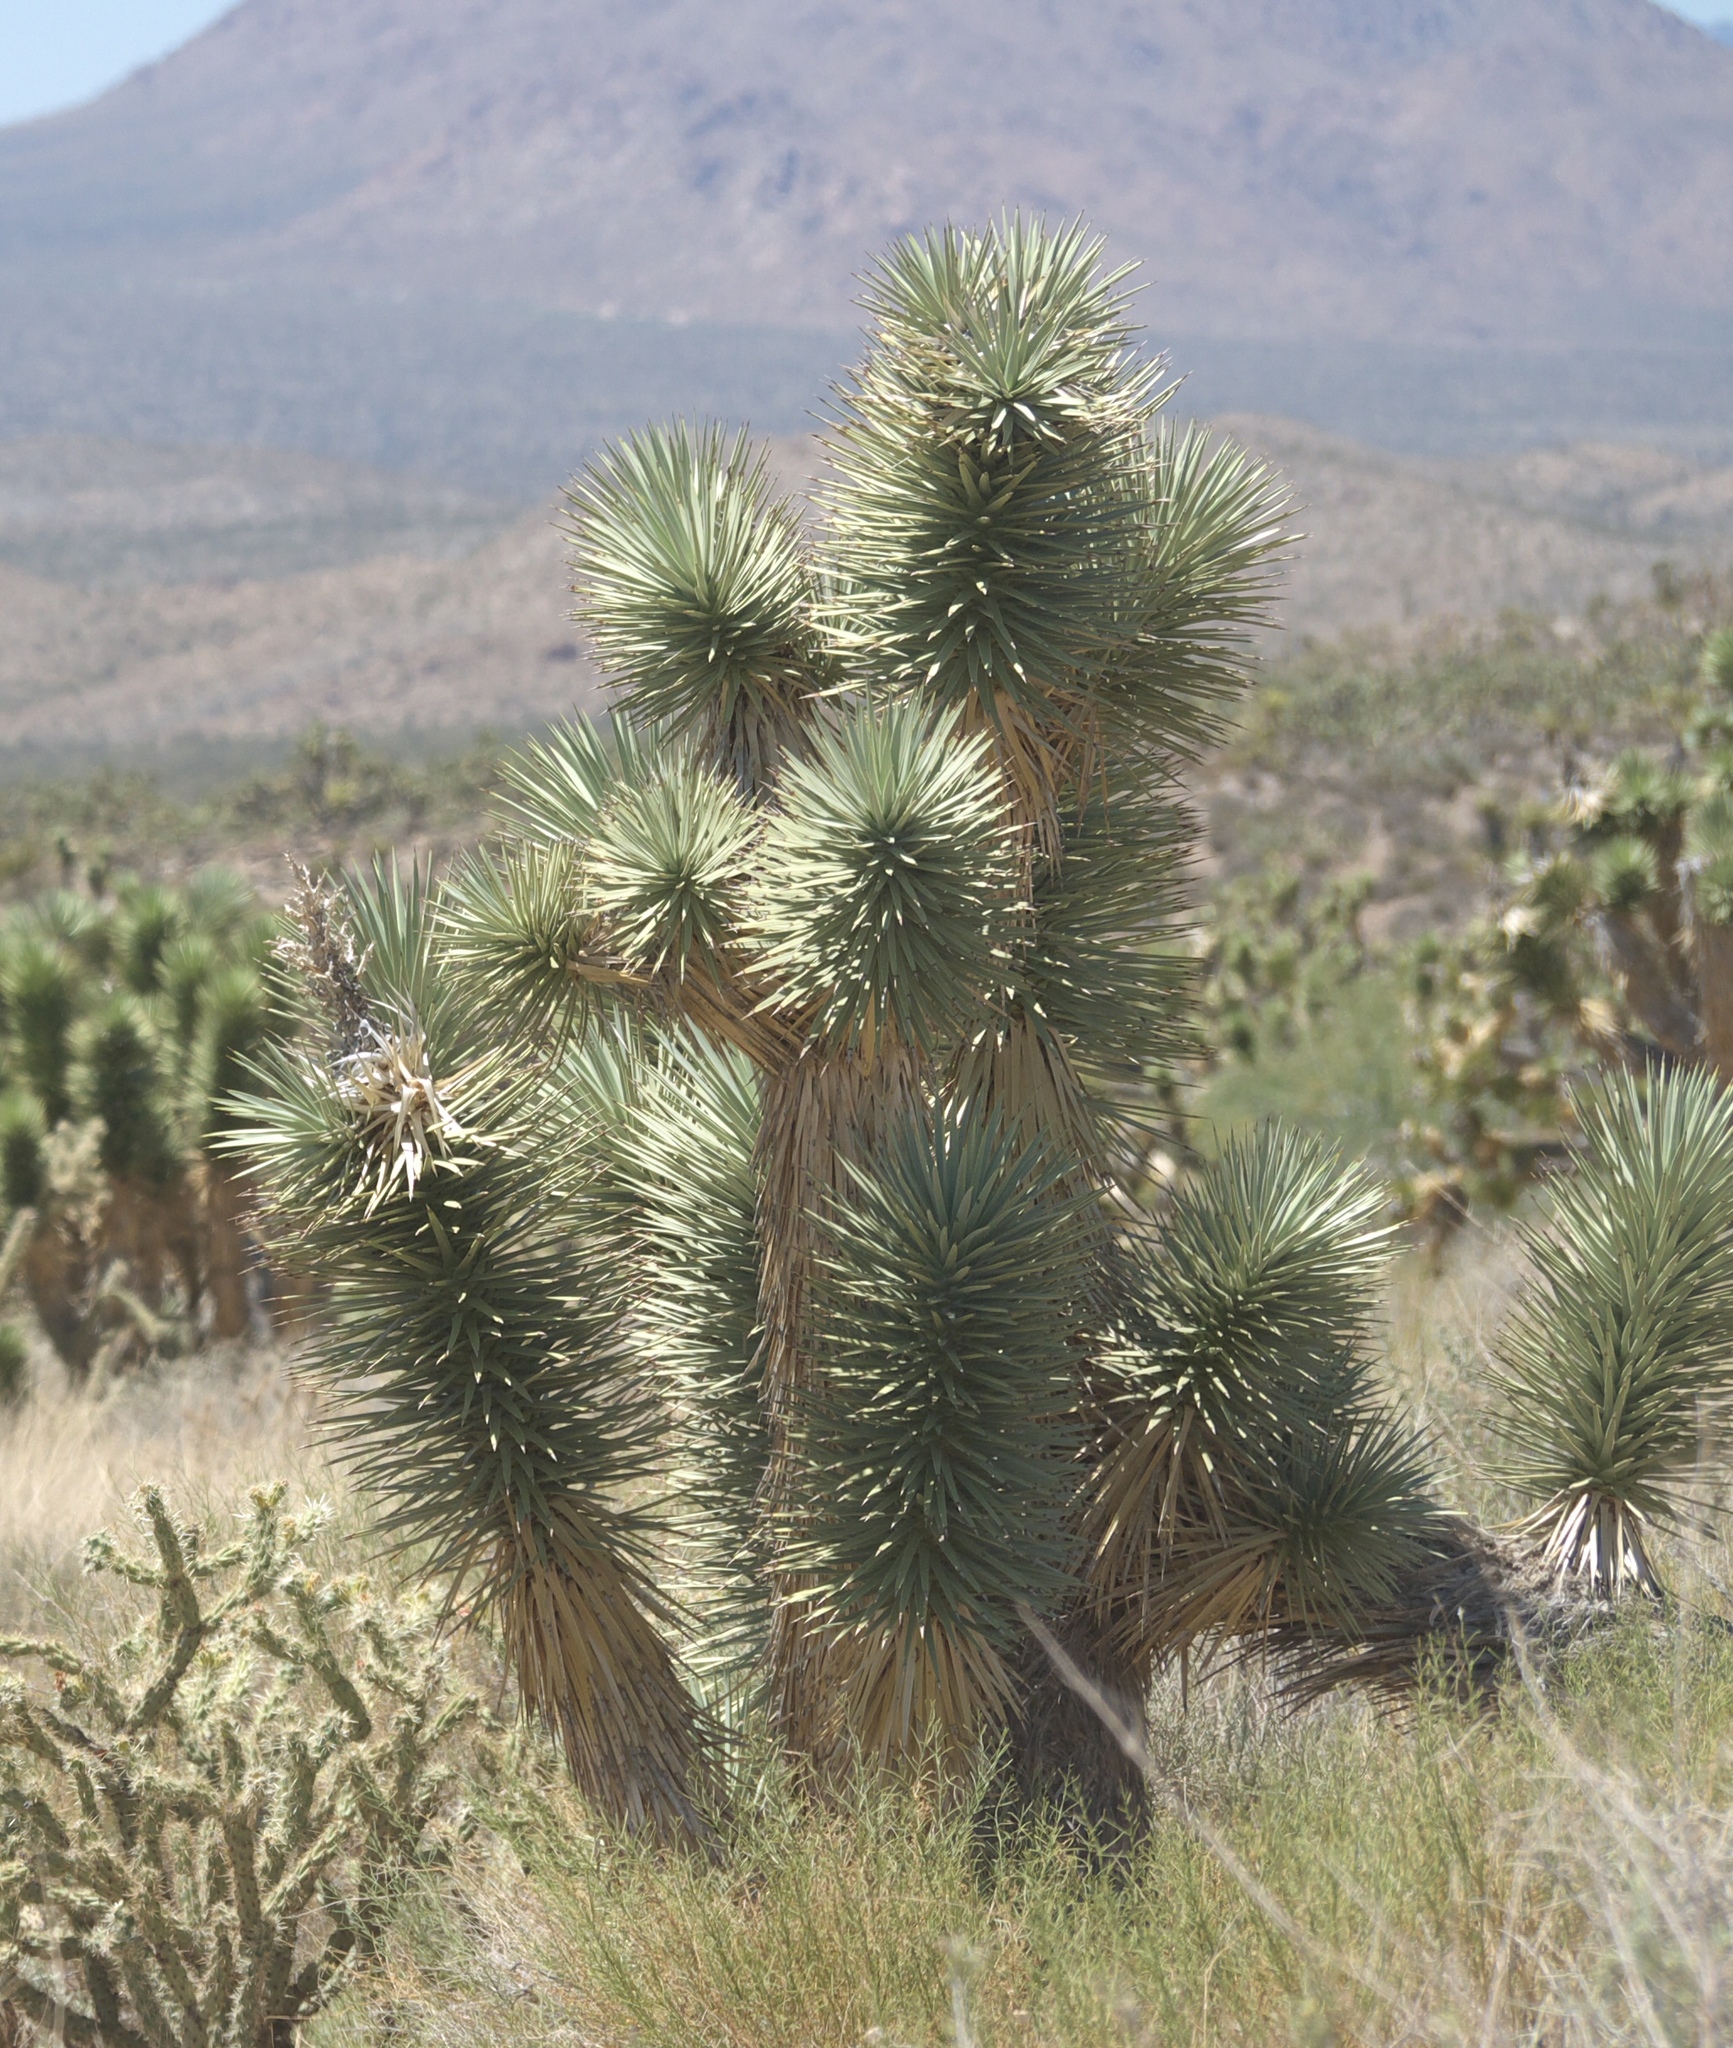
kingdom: Plantae
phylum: Tracheophyta
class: Liliopsida
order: Asparagales
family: Asparagaceae
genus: Yucca
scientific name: Yucca brevifolia
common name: Joshua tree
